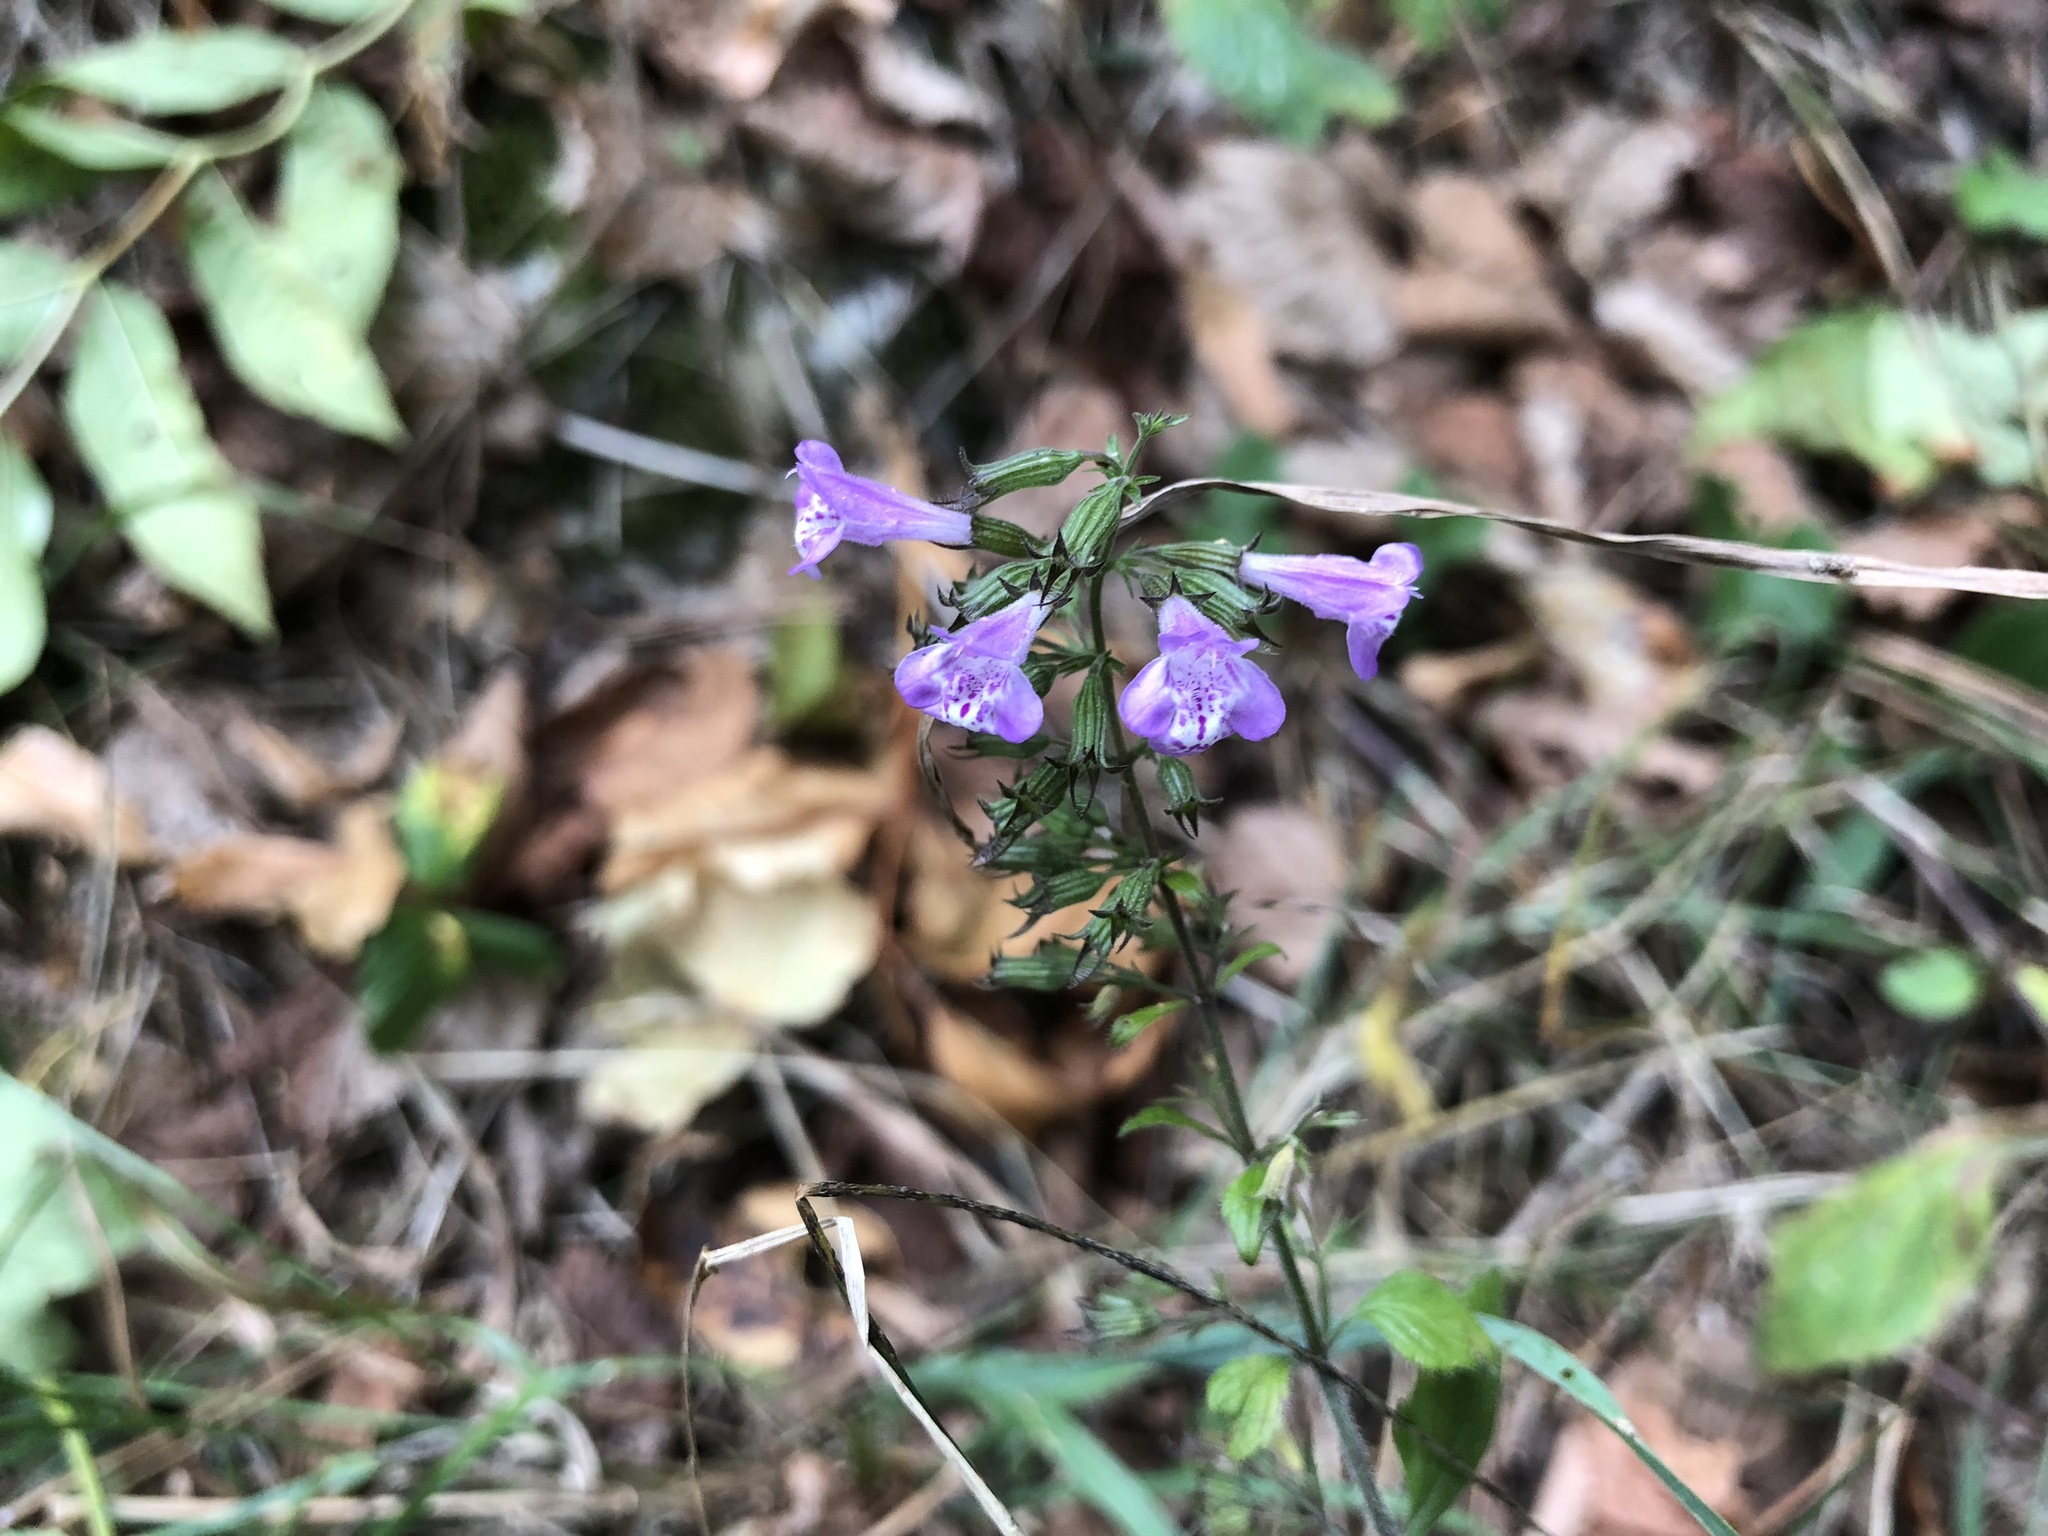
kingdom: Plantae
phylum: Tracheophyta
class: Magnoliopsida
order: Lamiales
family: Lamiaceae
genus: Clinopodium
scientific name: Clinopodium menthifolium
